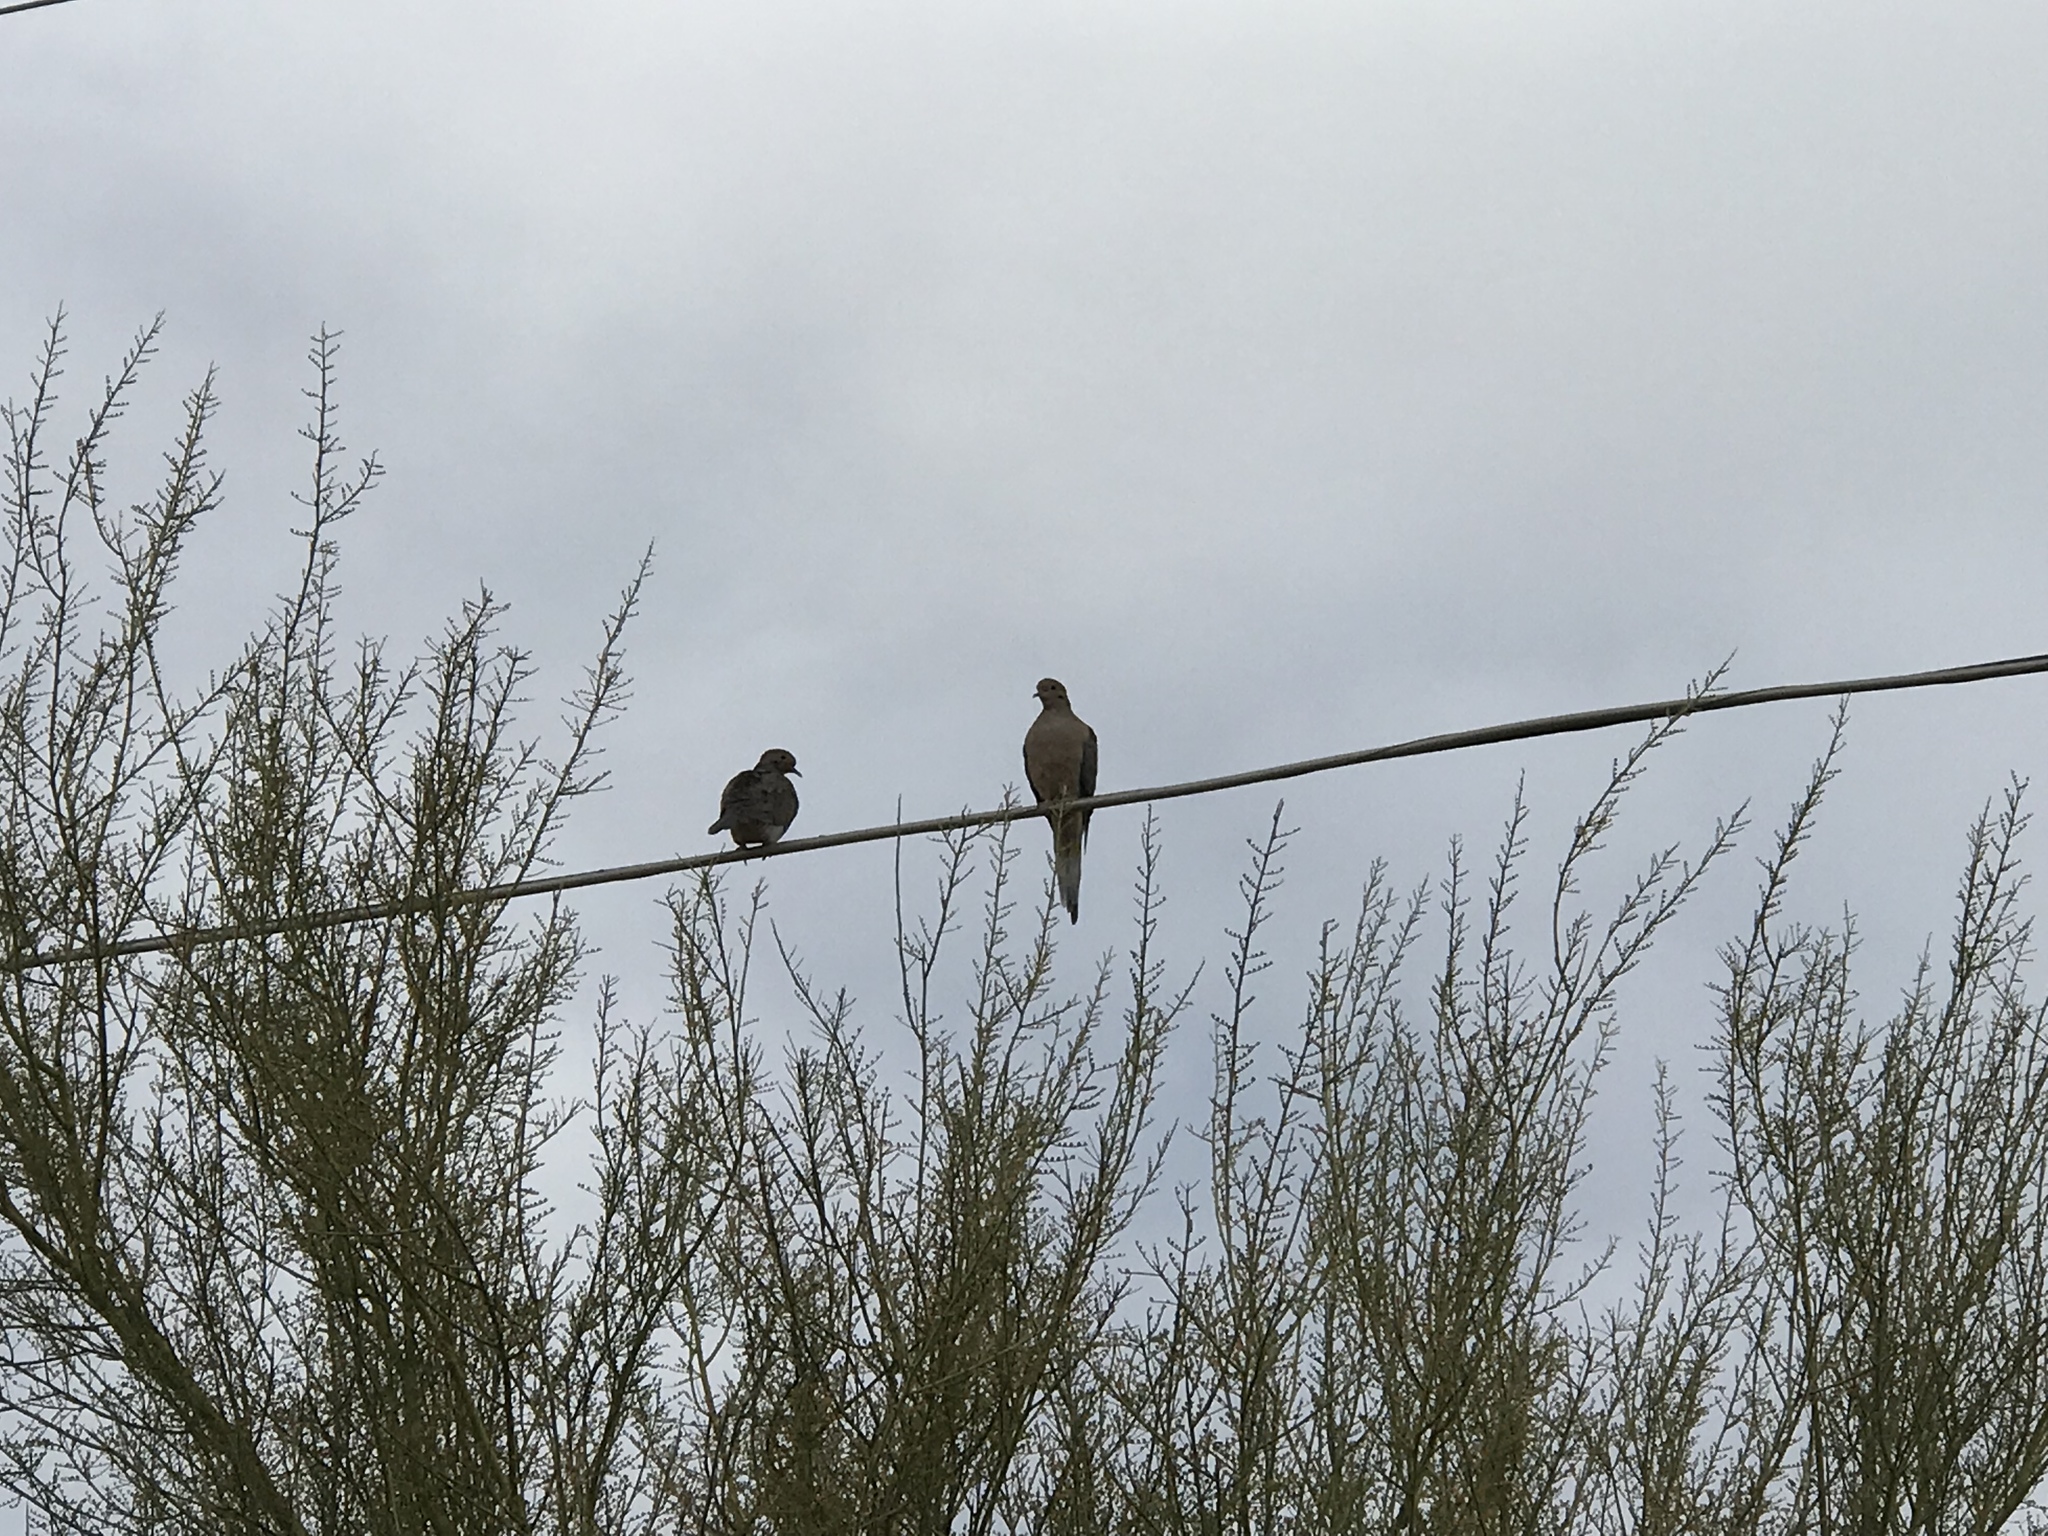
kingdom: Animalia
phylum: Chordata
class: Aves
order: Columbiformes
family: Columbidae
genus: Zenaida
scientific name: Zenaida macroura
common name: Mourning dove
